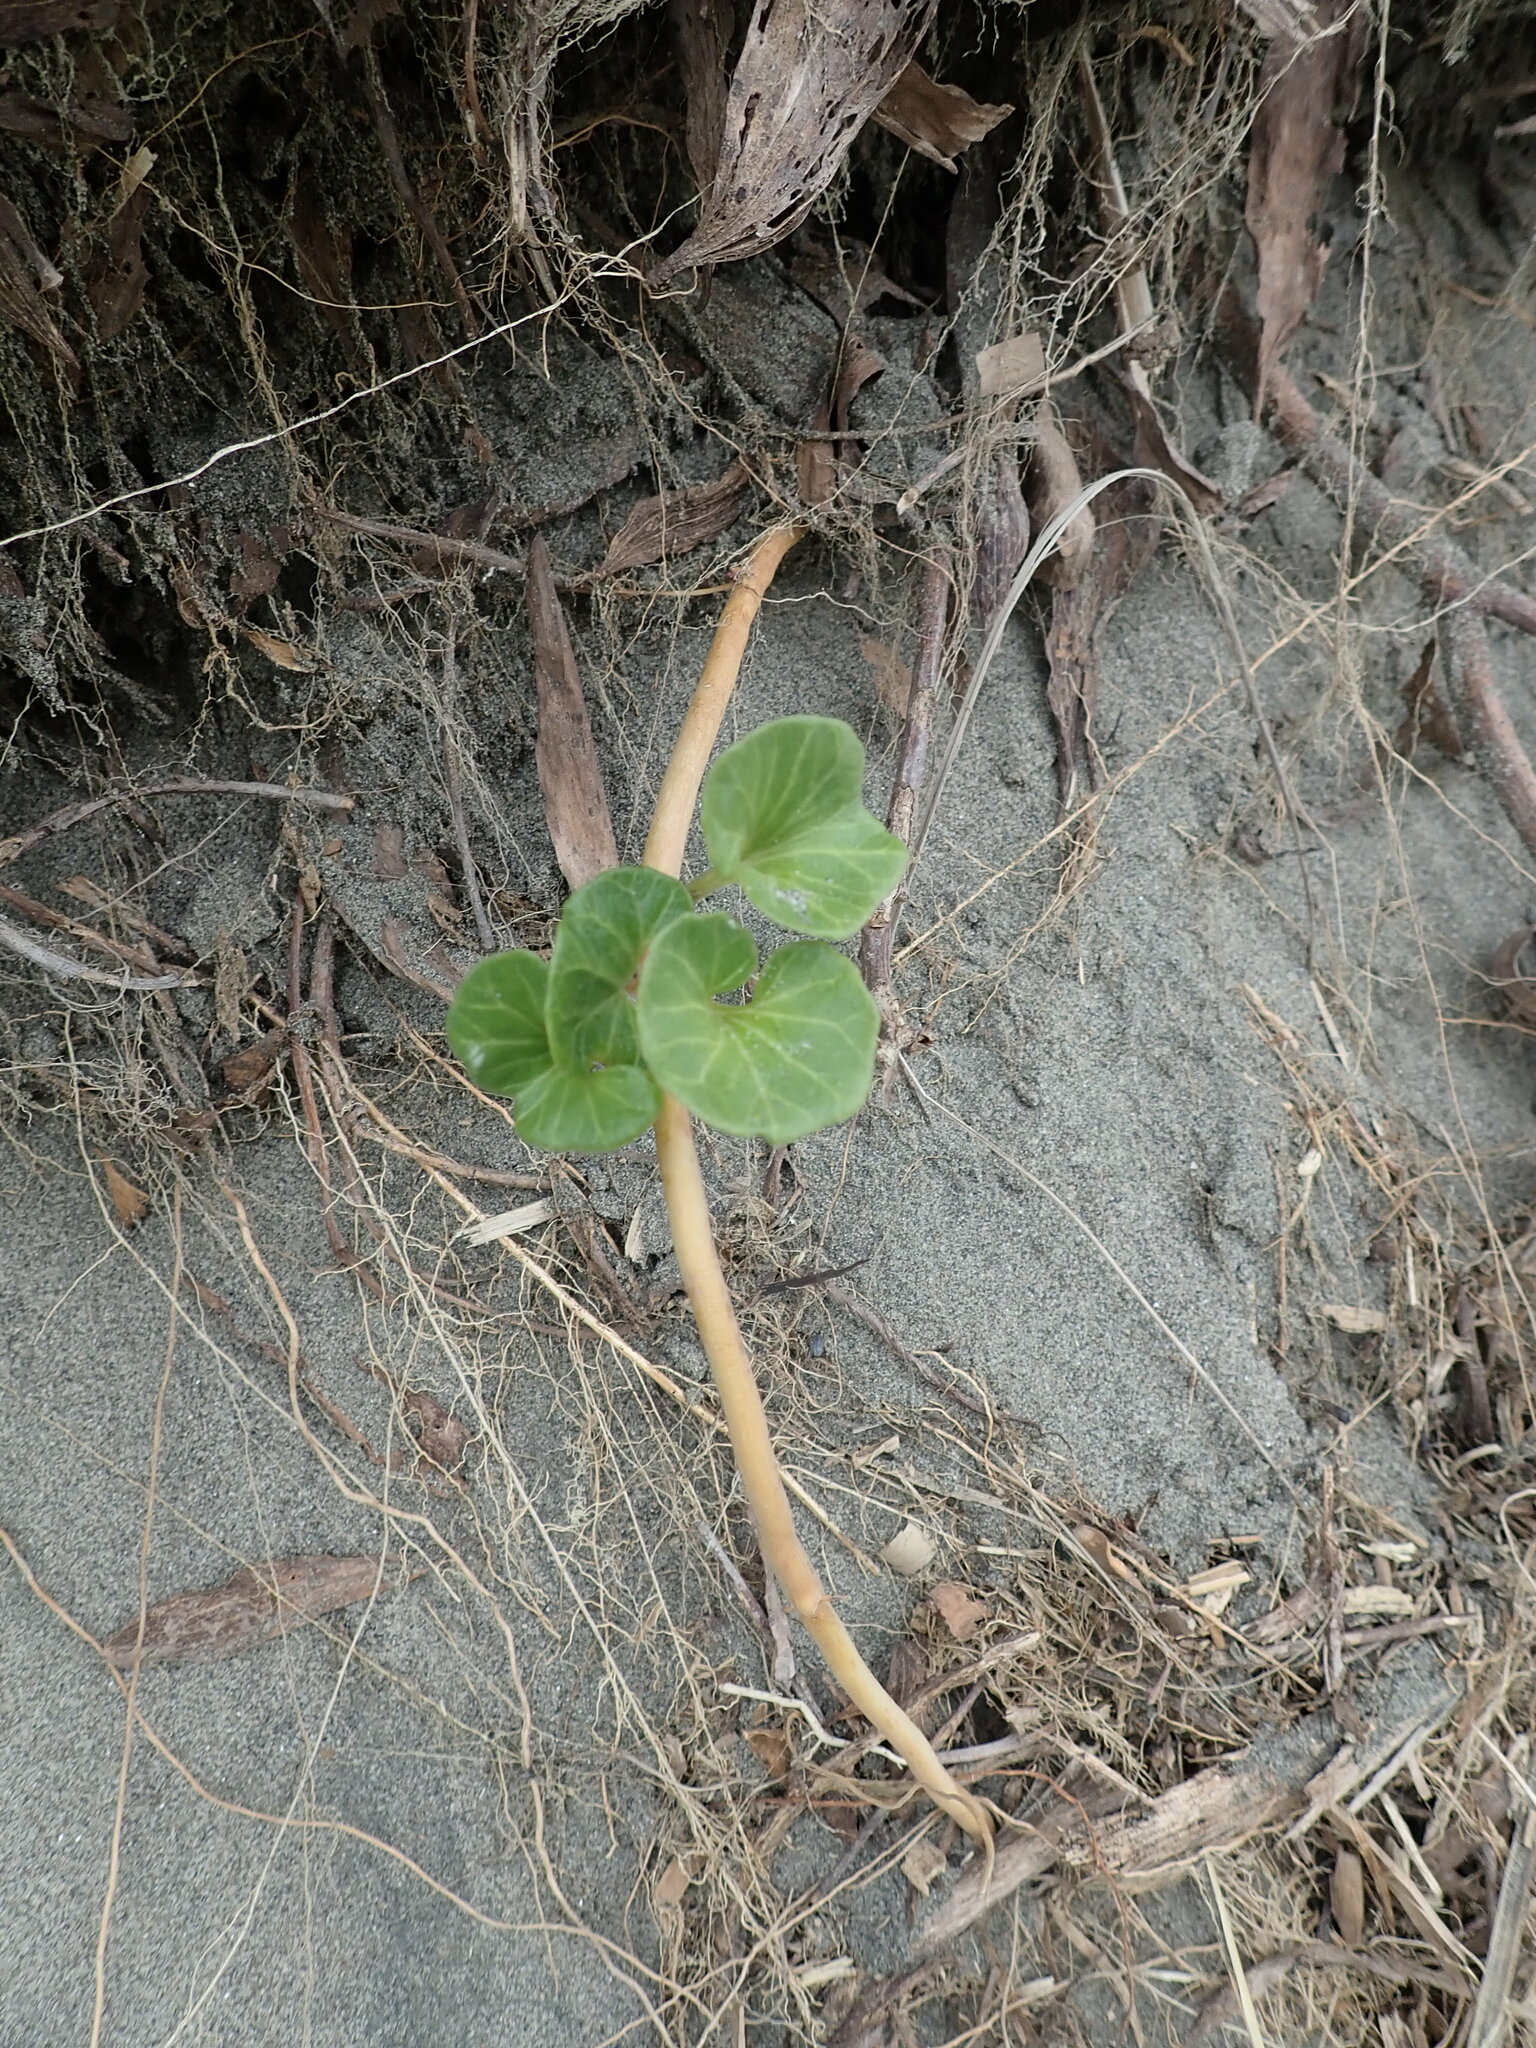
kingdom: Plantae
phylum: Tracheophyta
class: Magnoliopsida
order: Solanales
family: Convolvulaceae
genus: Calystegia
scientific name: Calystegia soldanella
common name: Sea bindweed
